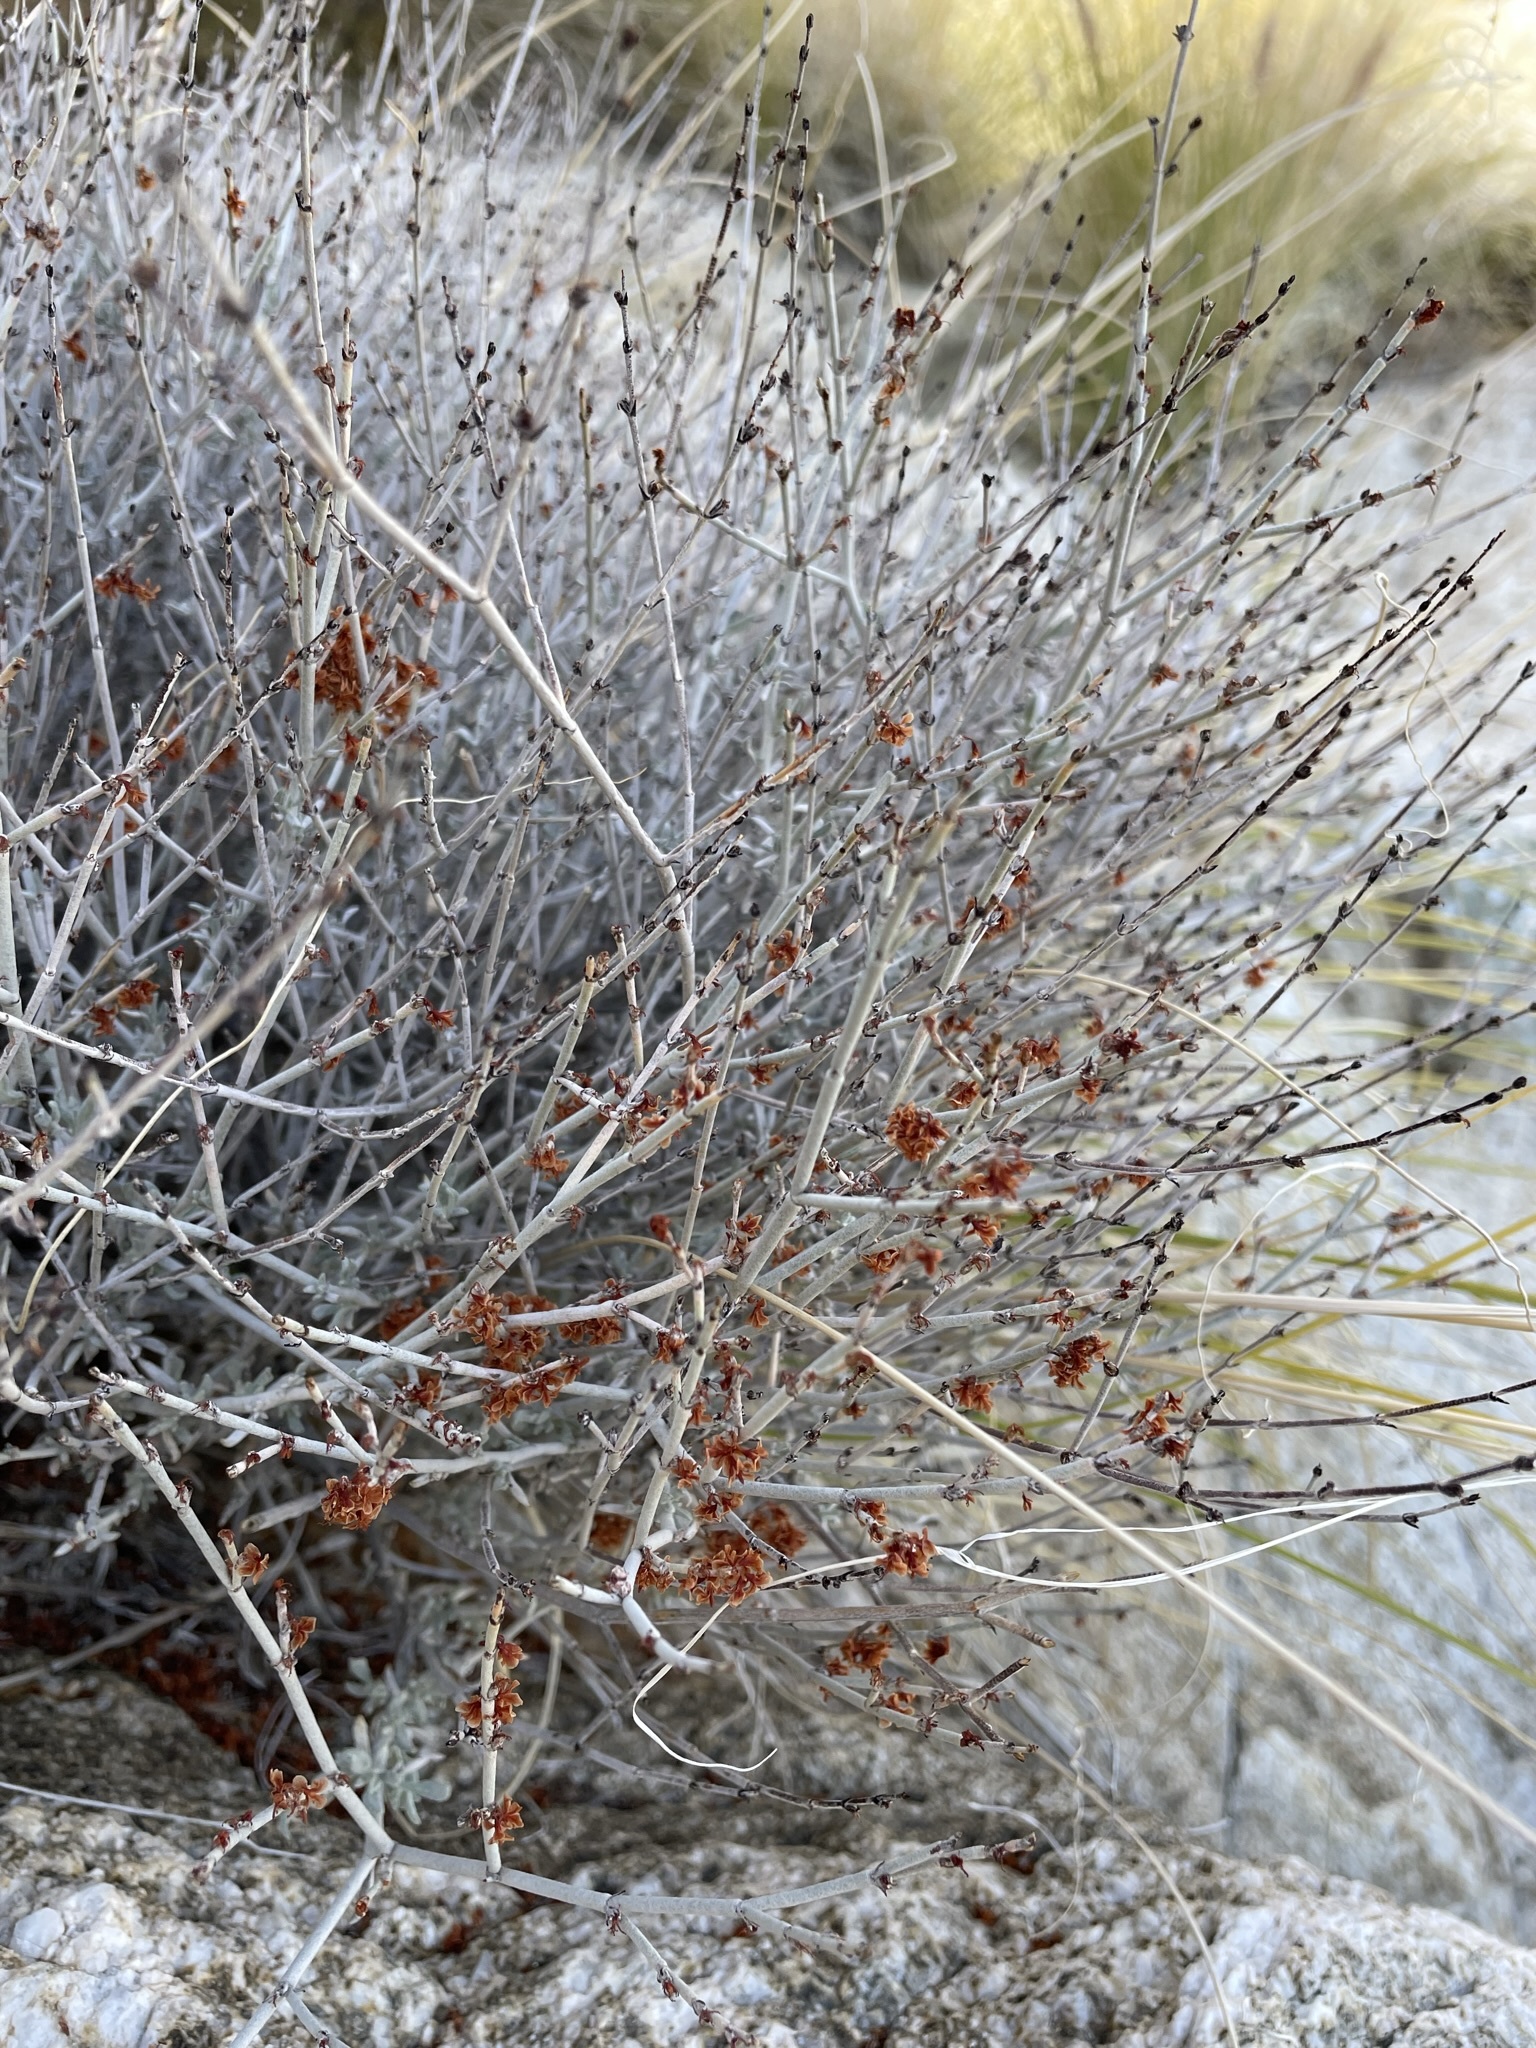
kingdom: Plantae
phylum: Tracheophyta
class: Magnoliopsida
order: Caryophyllales
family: Polygonaceae
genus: Eriogonum
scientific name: Eriogonum wrightii
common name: Bastard-sage
